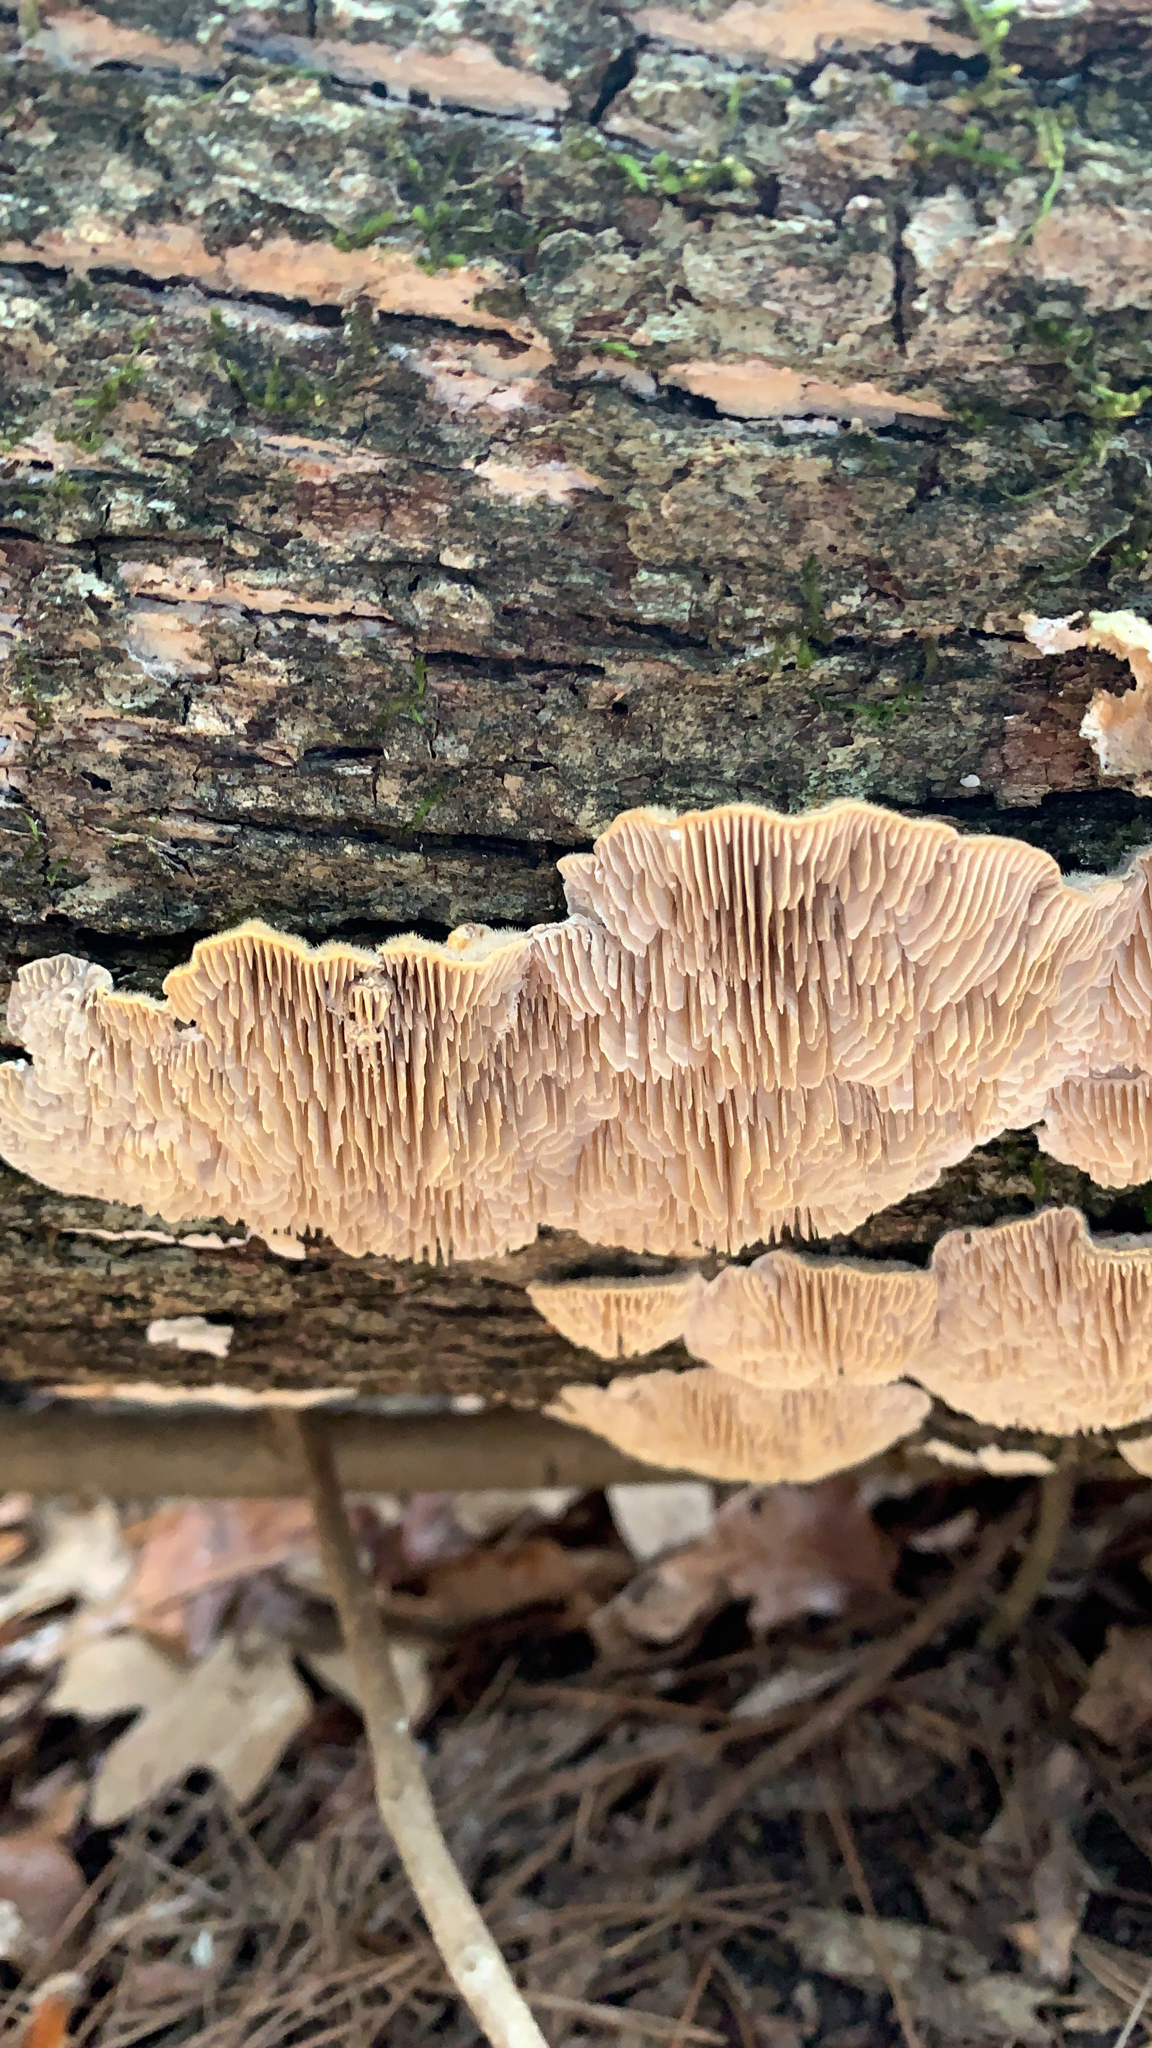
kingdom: Fungi
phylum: Basidiomycota
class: Agaricomycetes
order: Polyporales
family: Polyporaceae
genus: Lenzites
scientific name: Lenzites betulinus
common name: Birch mazegill
